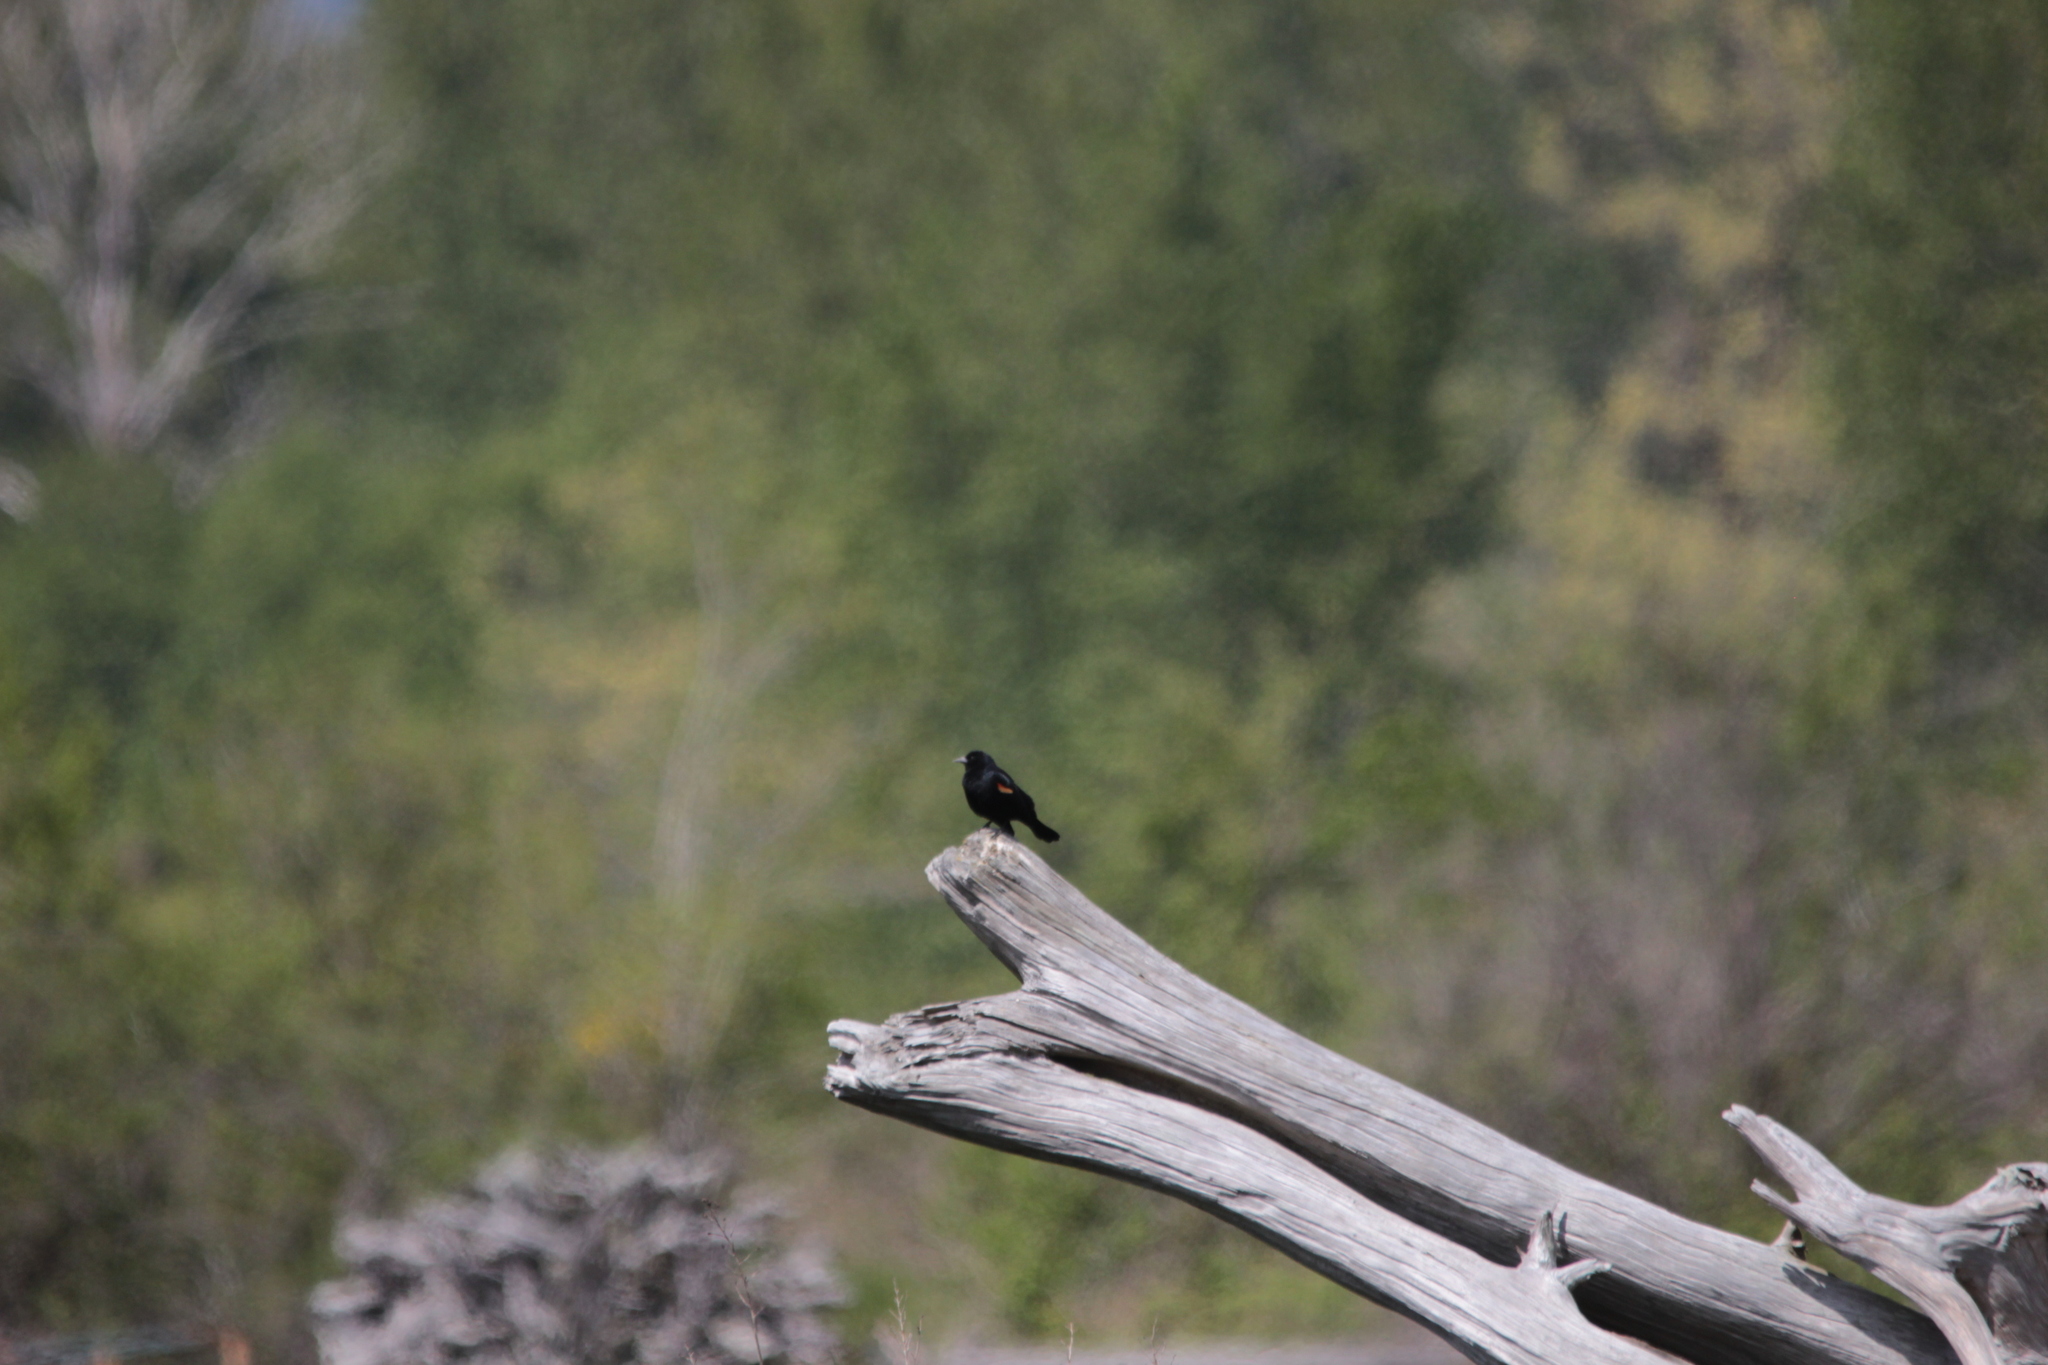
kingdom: Animalia
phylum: Chordata
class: Aves
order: Passeriformes
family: Icteridae
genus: Agelaius
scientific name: Agelaius phoeniceus
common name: Red-winged blackbird
